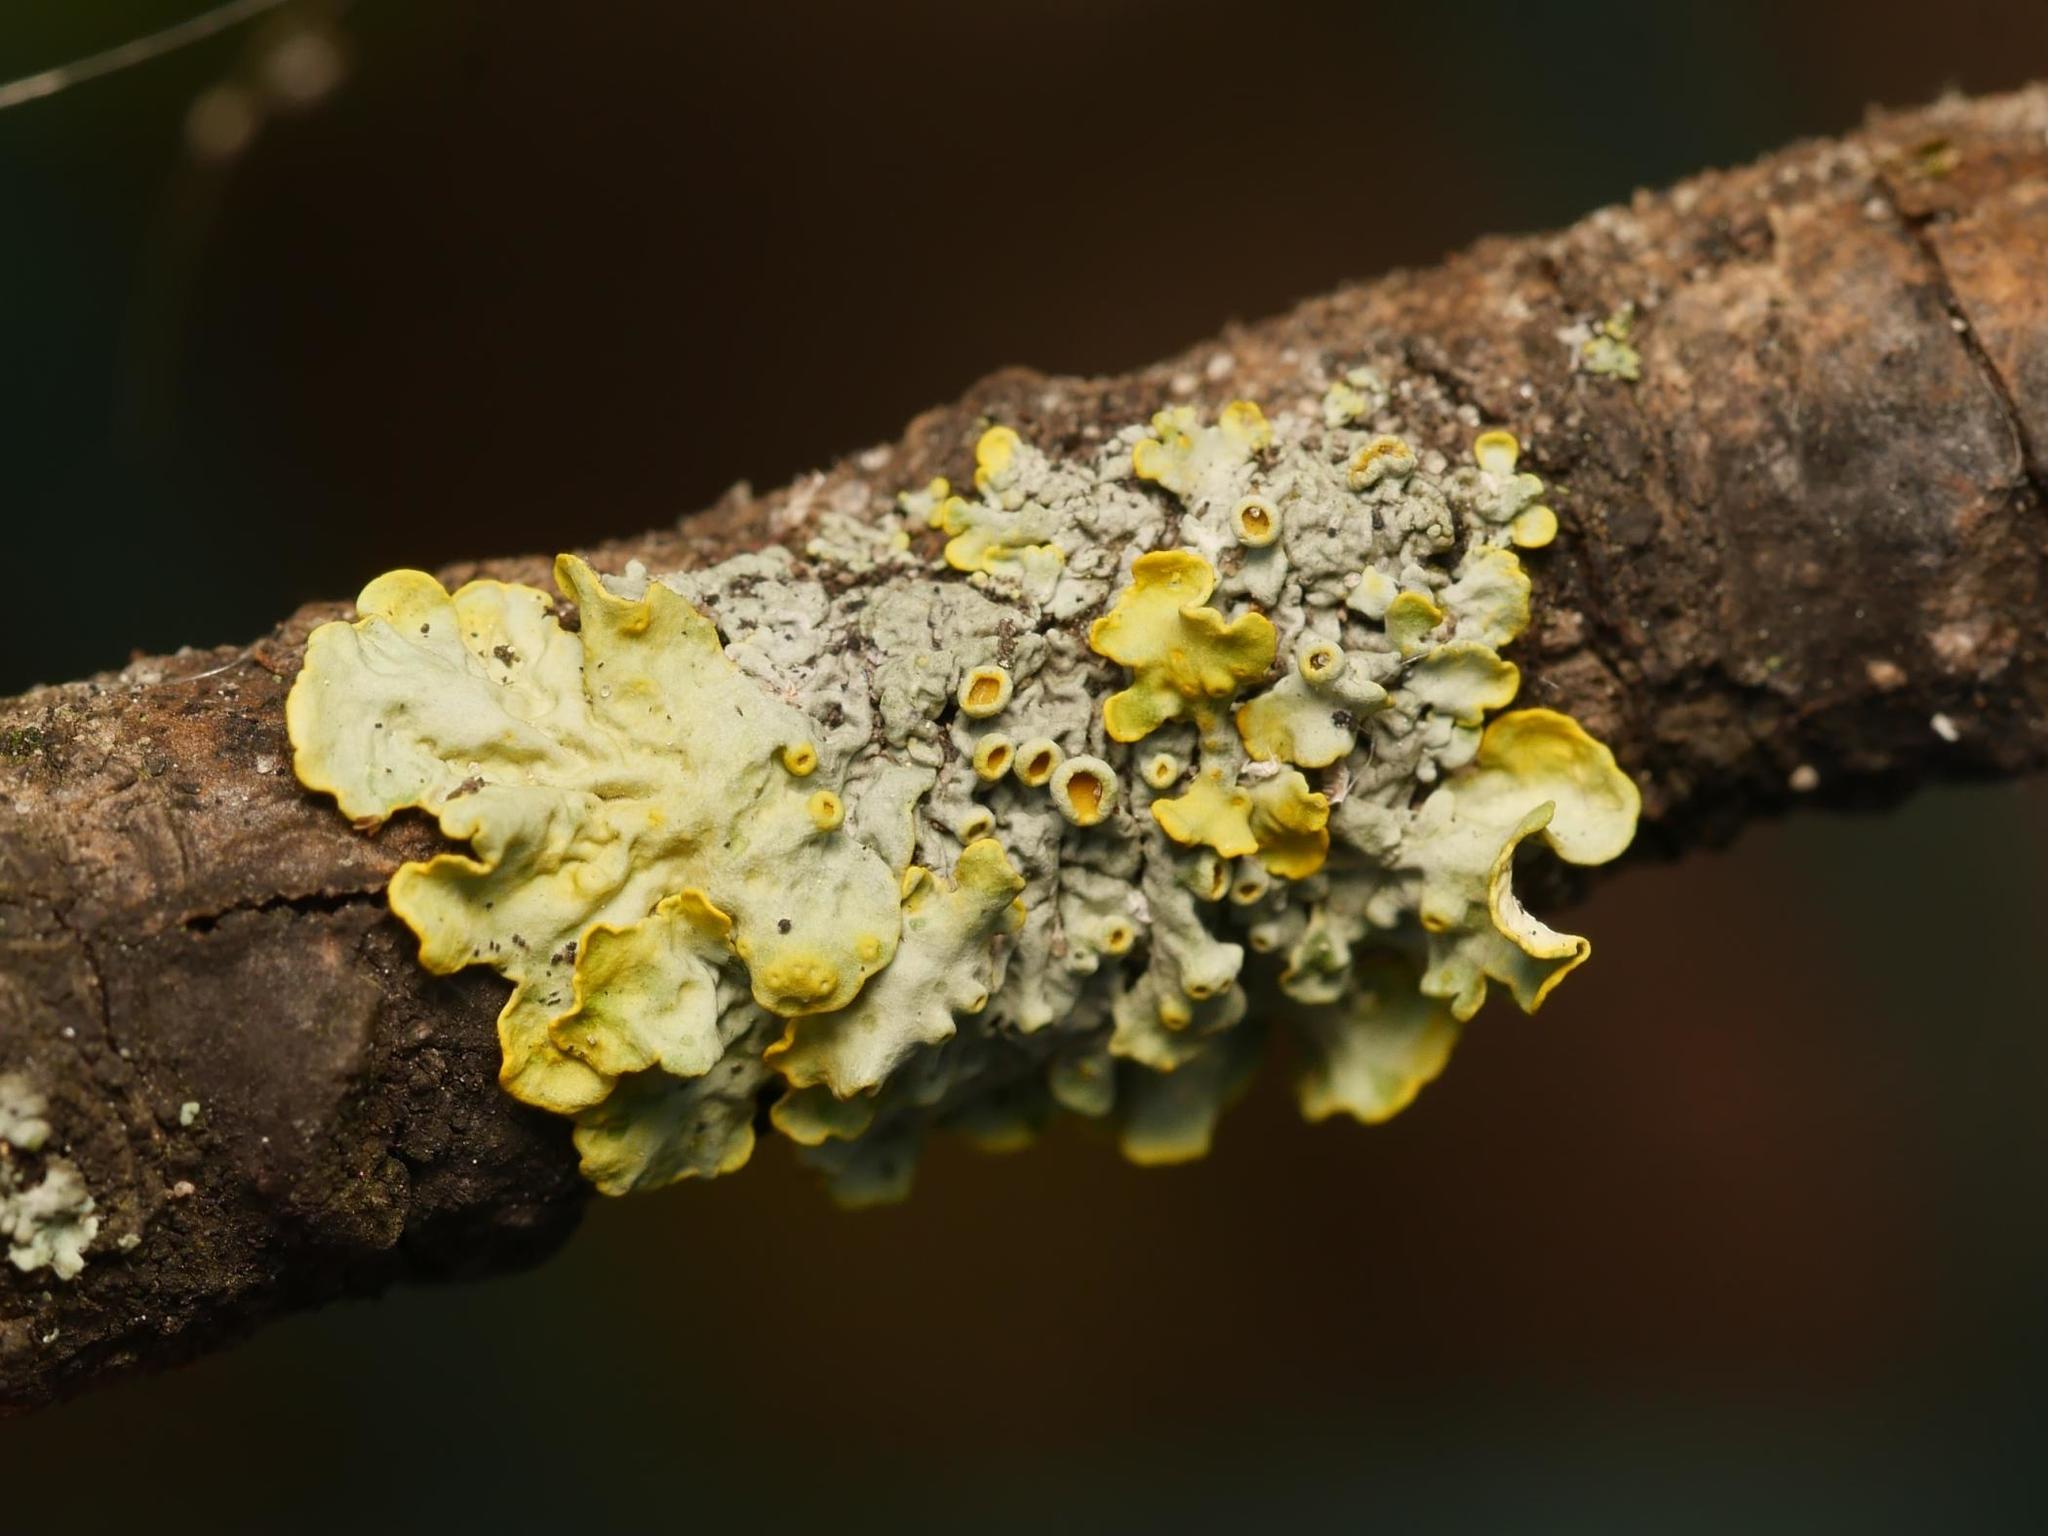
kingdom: Fungi
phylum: Ascomycota
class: Lecanoromycetes
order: Teloschistales
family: Teloschistaceae
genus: Xanthoria
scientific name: Xanthoria parietina
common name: Common orange lichen
